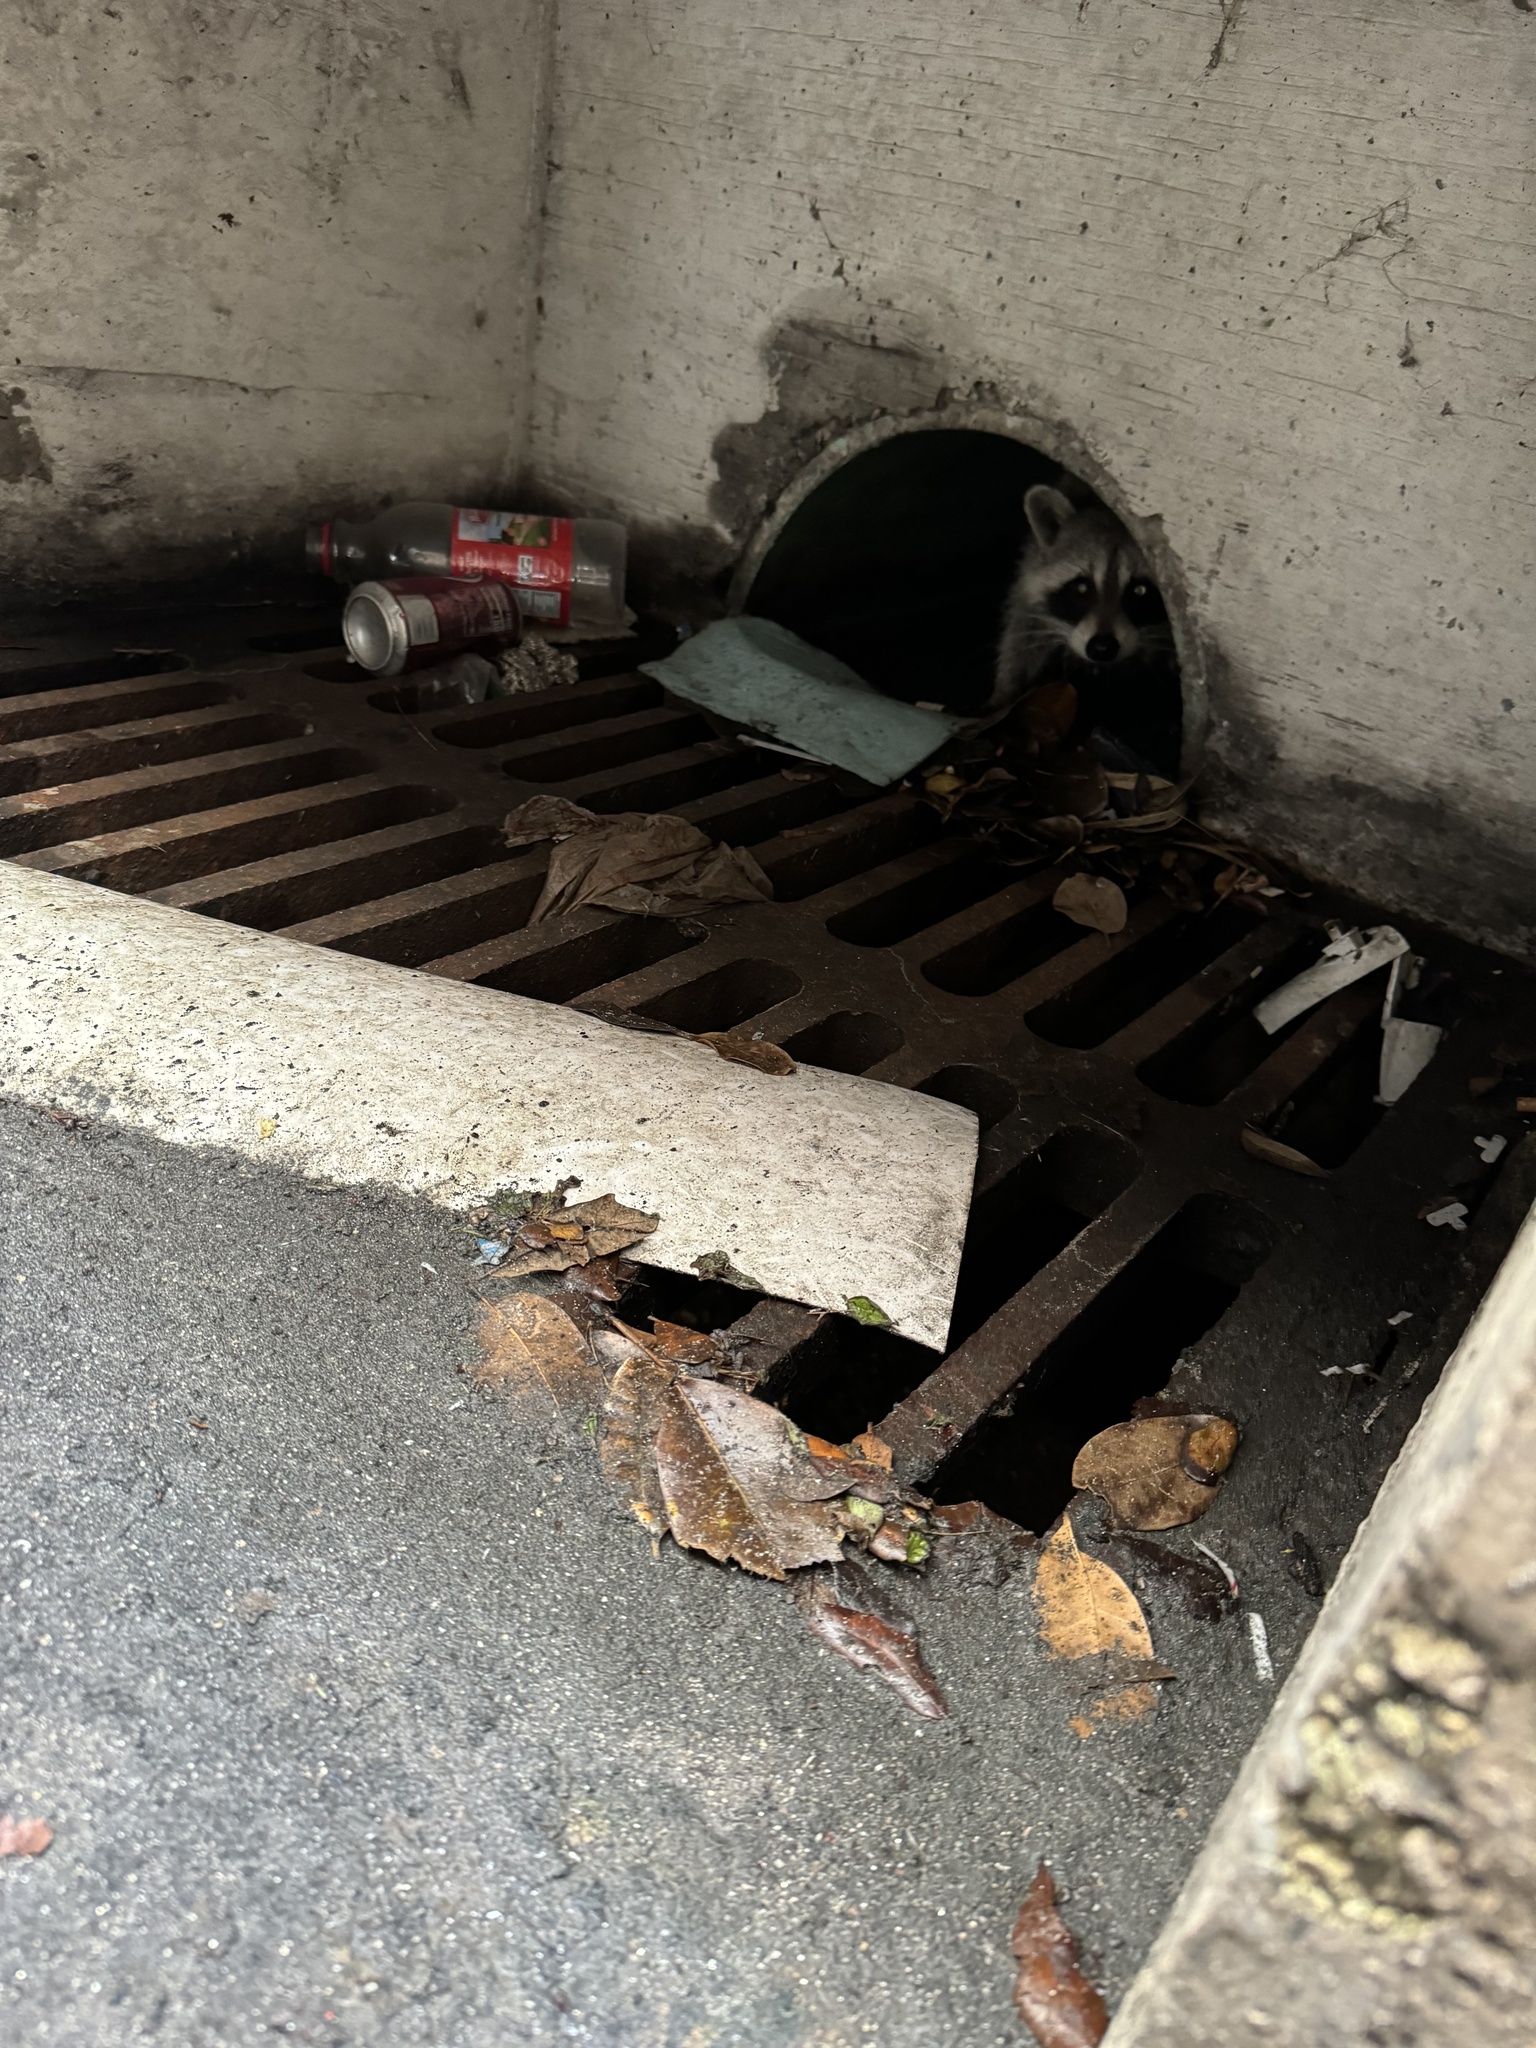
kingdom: Animalia
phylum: Chordata
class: Mammalia
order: Carnivora
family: Procyonidae
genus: Procyon
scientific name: Procyon lotor
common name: Raccoon
